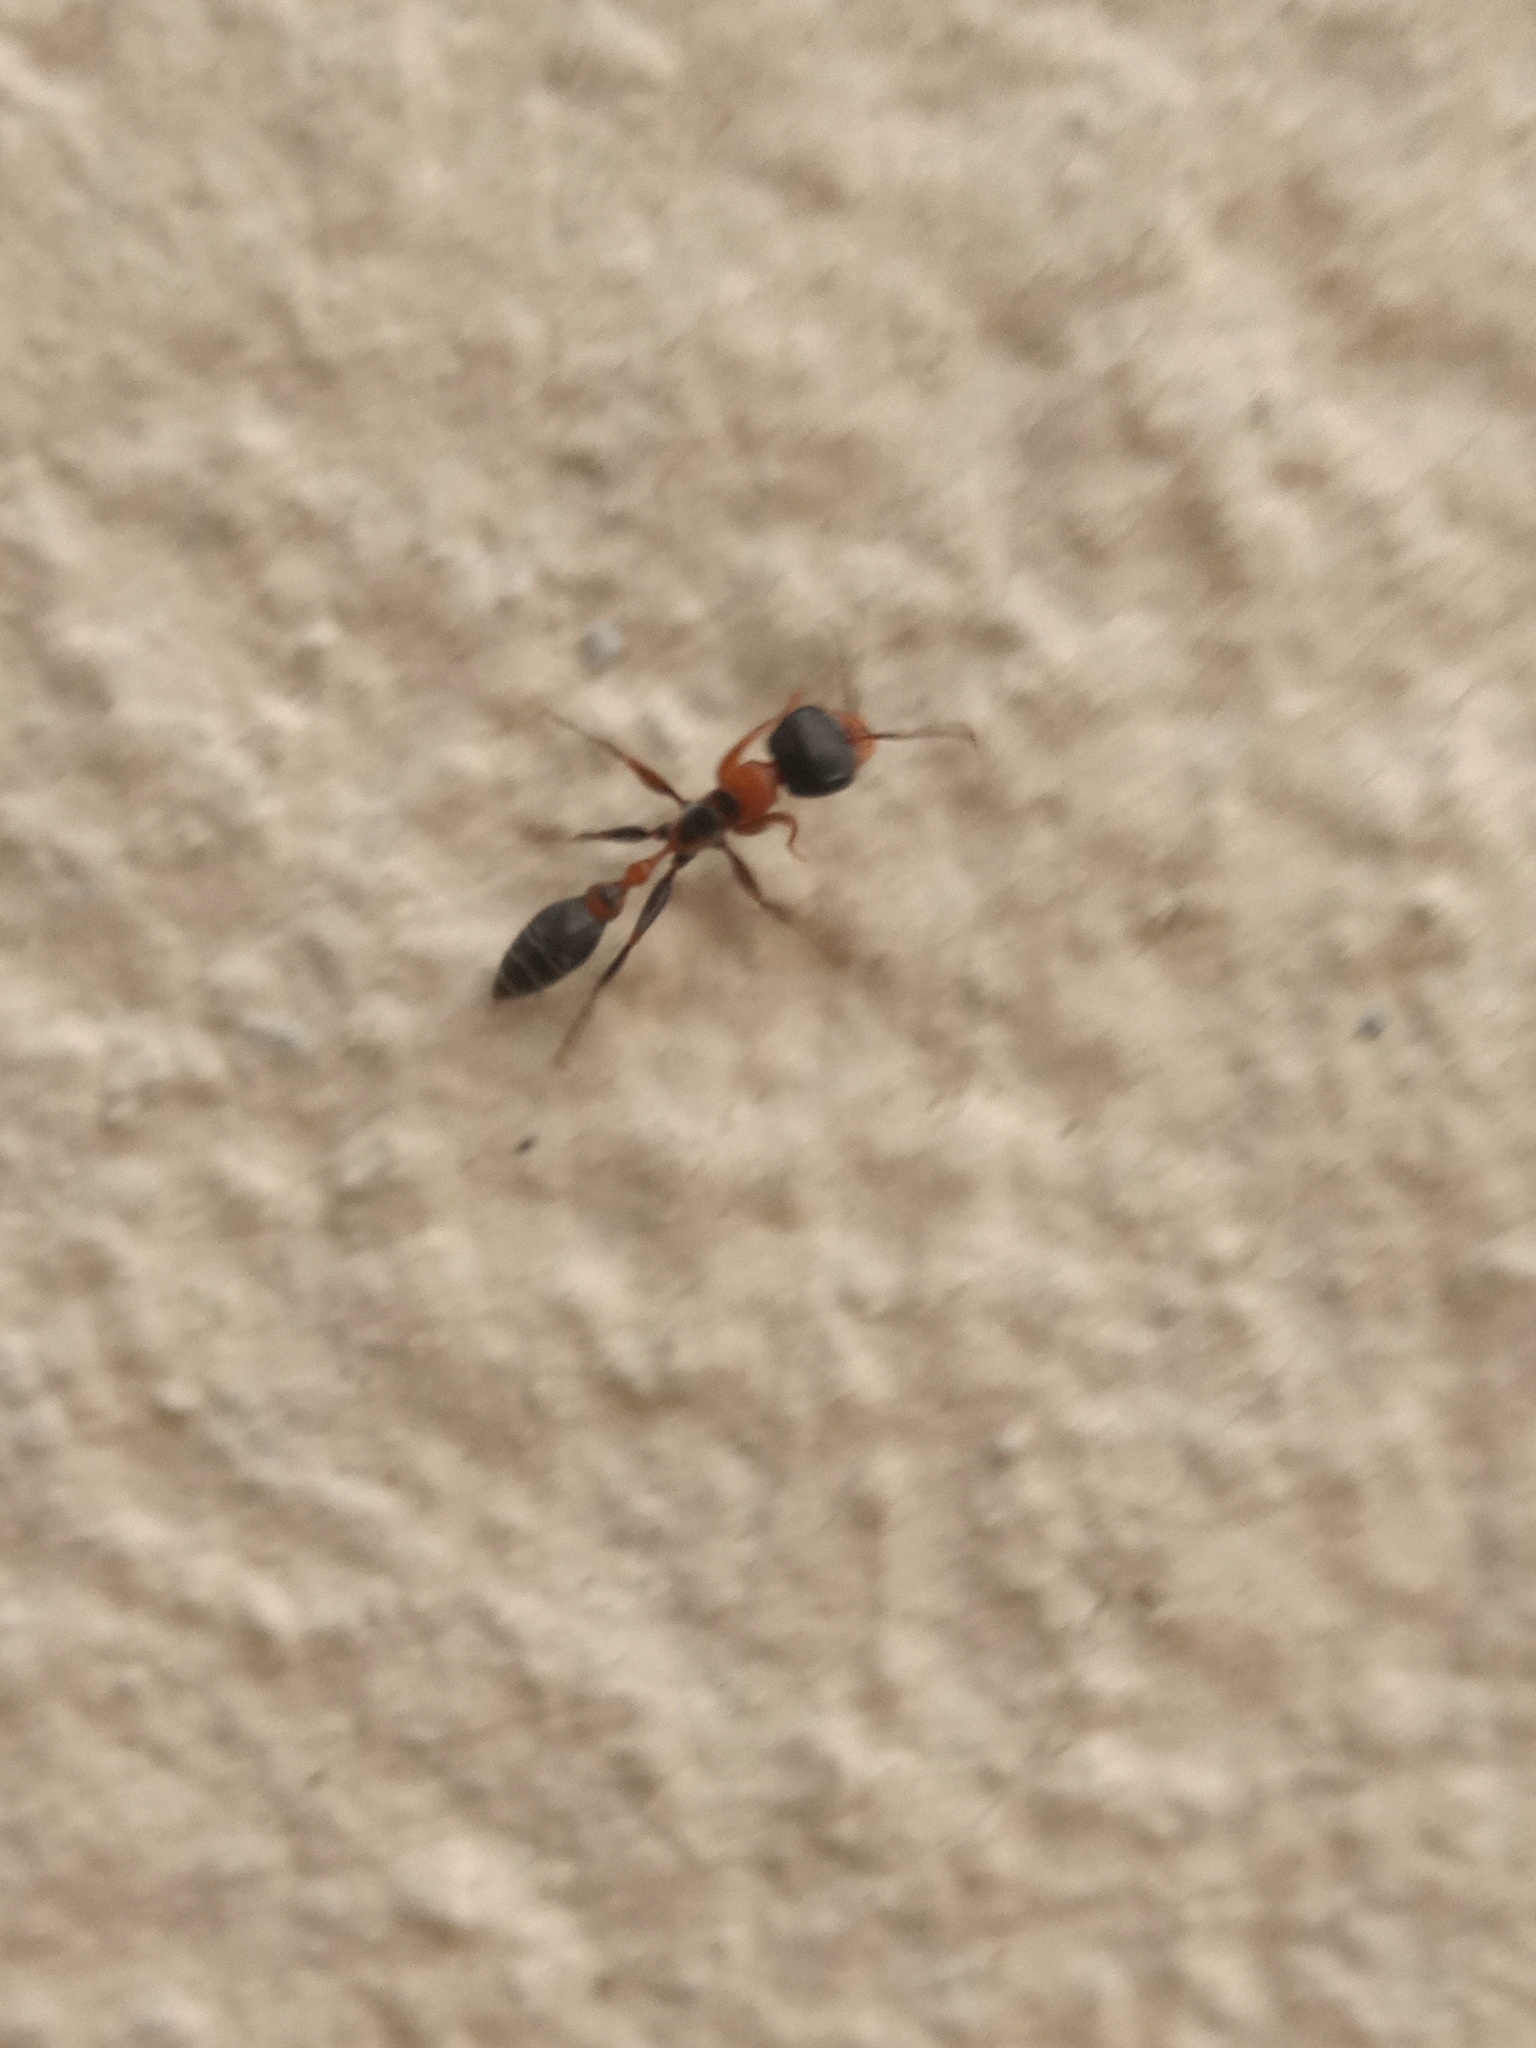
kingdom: Animalia
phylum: Arthropoda
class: Insecta
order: Hymenoptera
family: Formicidae
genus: Pseudomyrmex
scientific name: Pseudomyrmex gracilis
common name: Graceful twig ant
